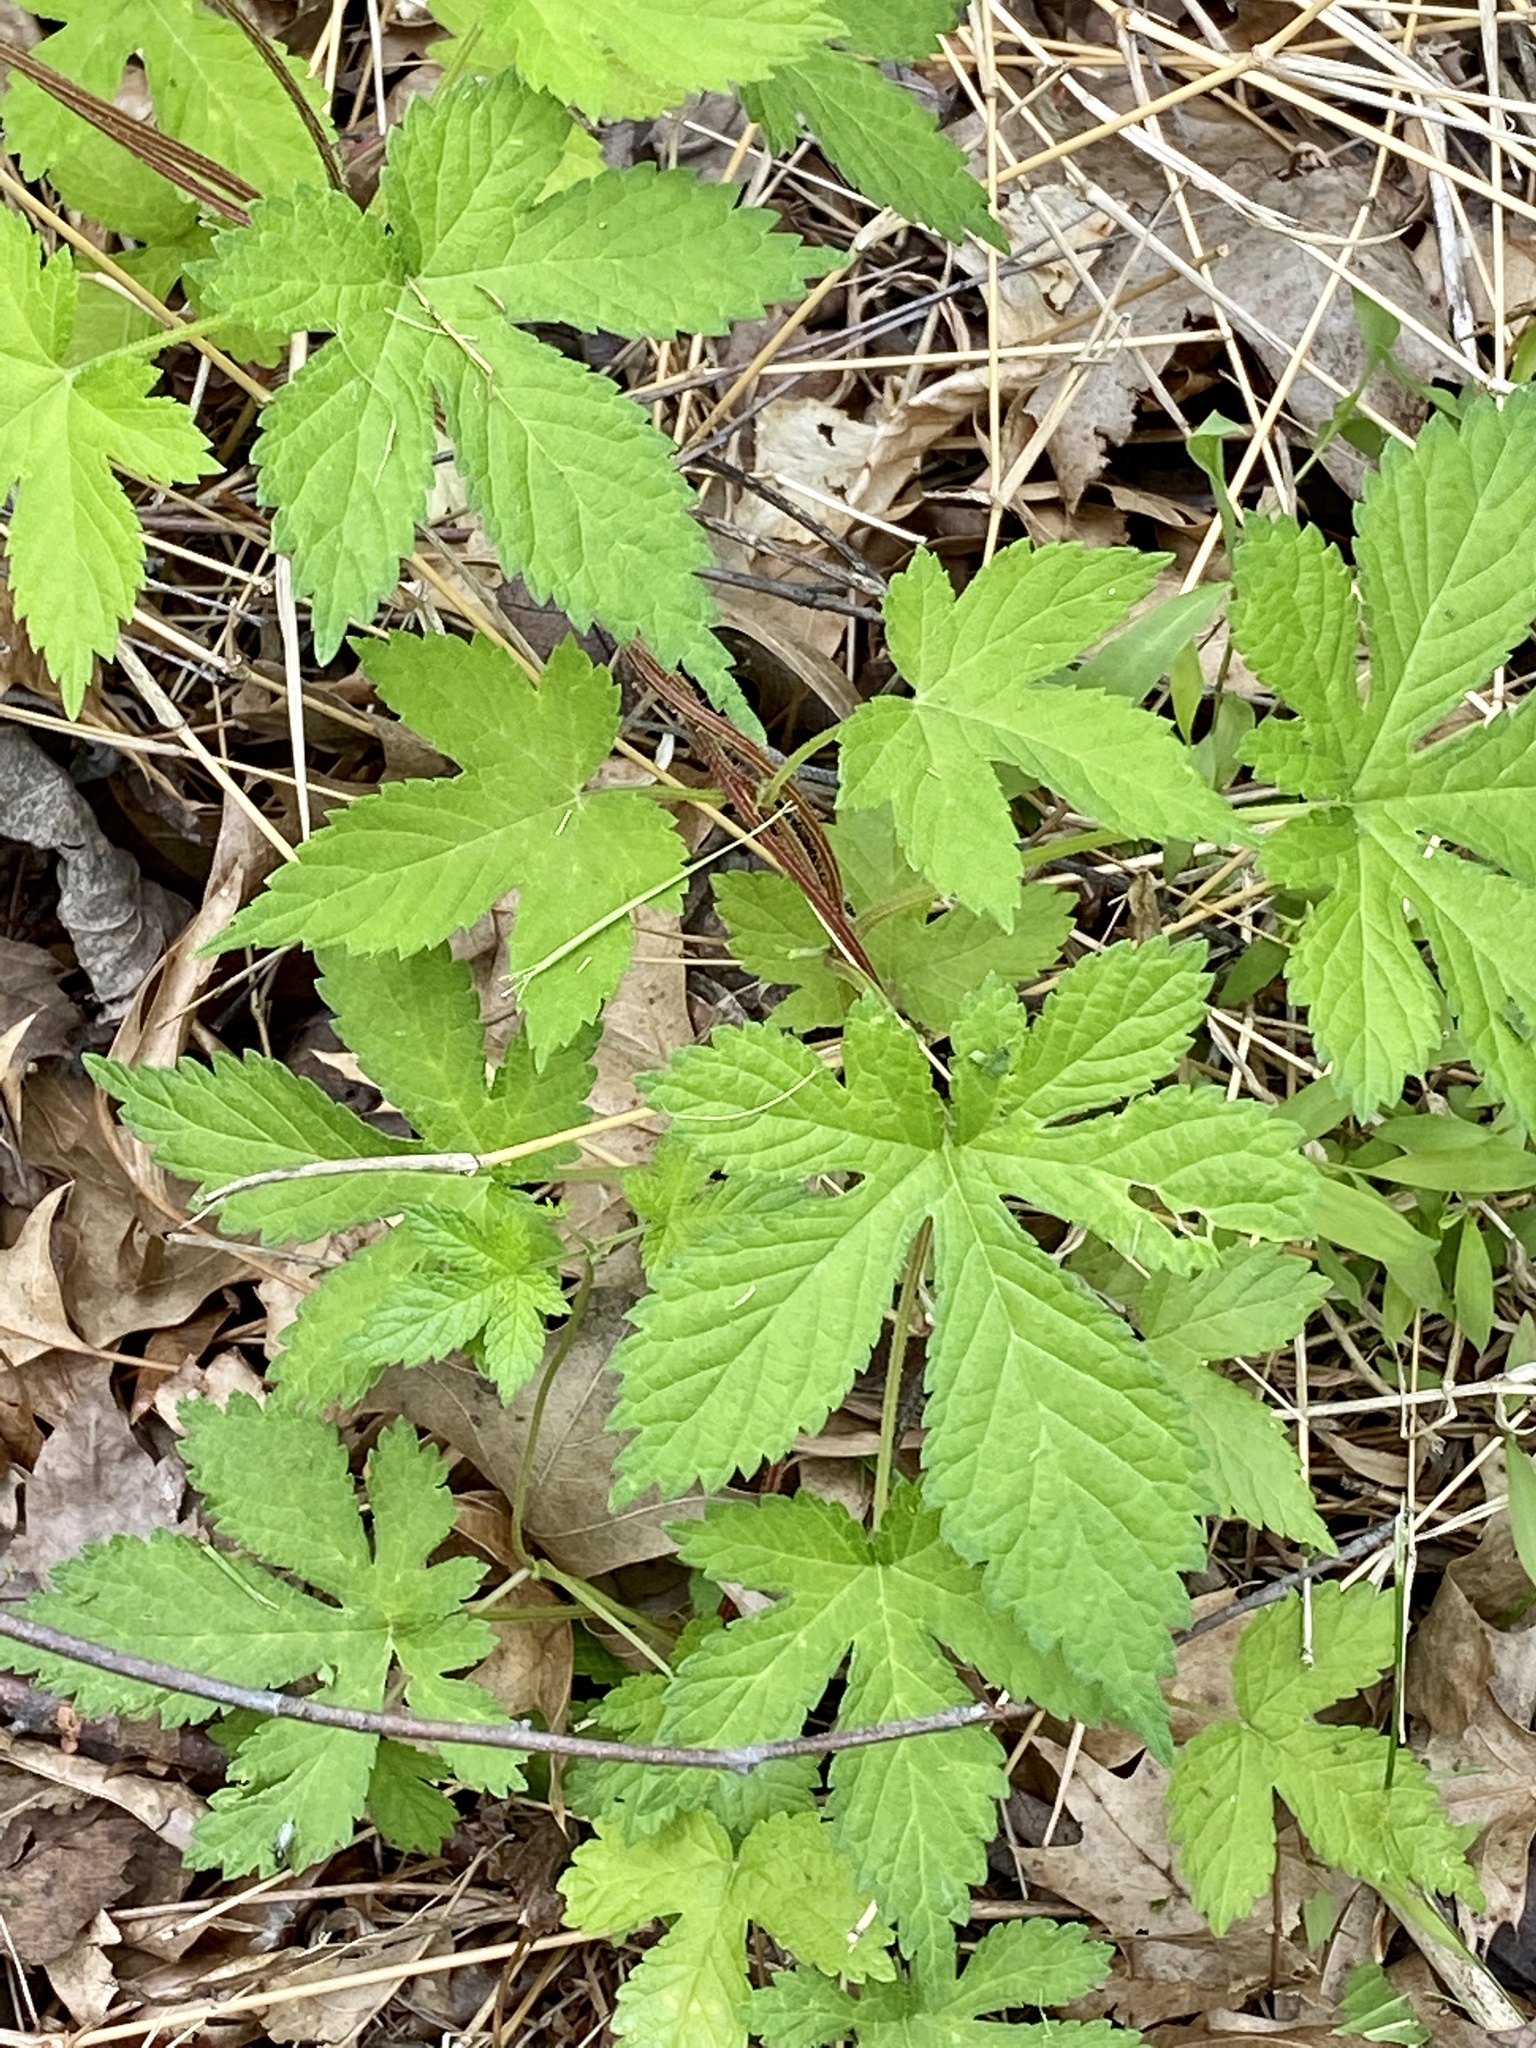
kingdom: Plantae
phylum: Tracheophyta
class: Magnoliopsida
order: Rosales
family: Cannabaceae
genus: Humulus
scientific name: Humulus scandens
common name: Japanese hop
